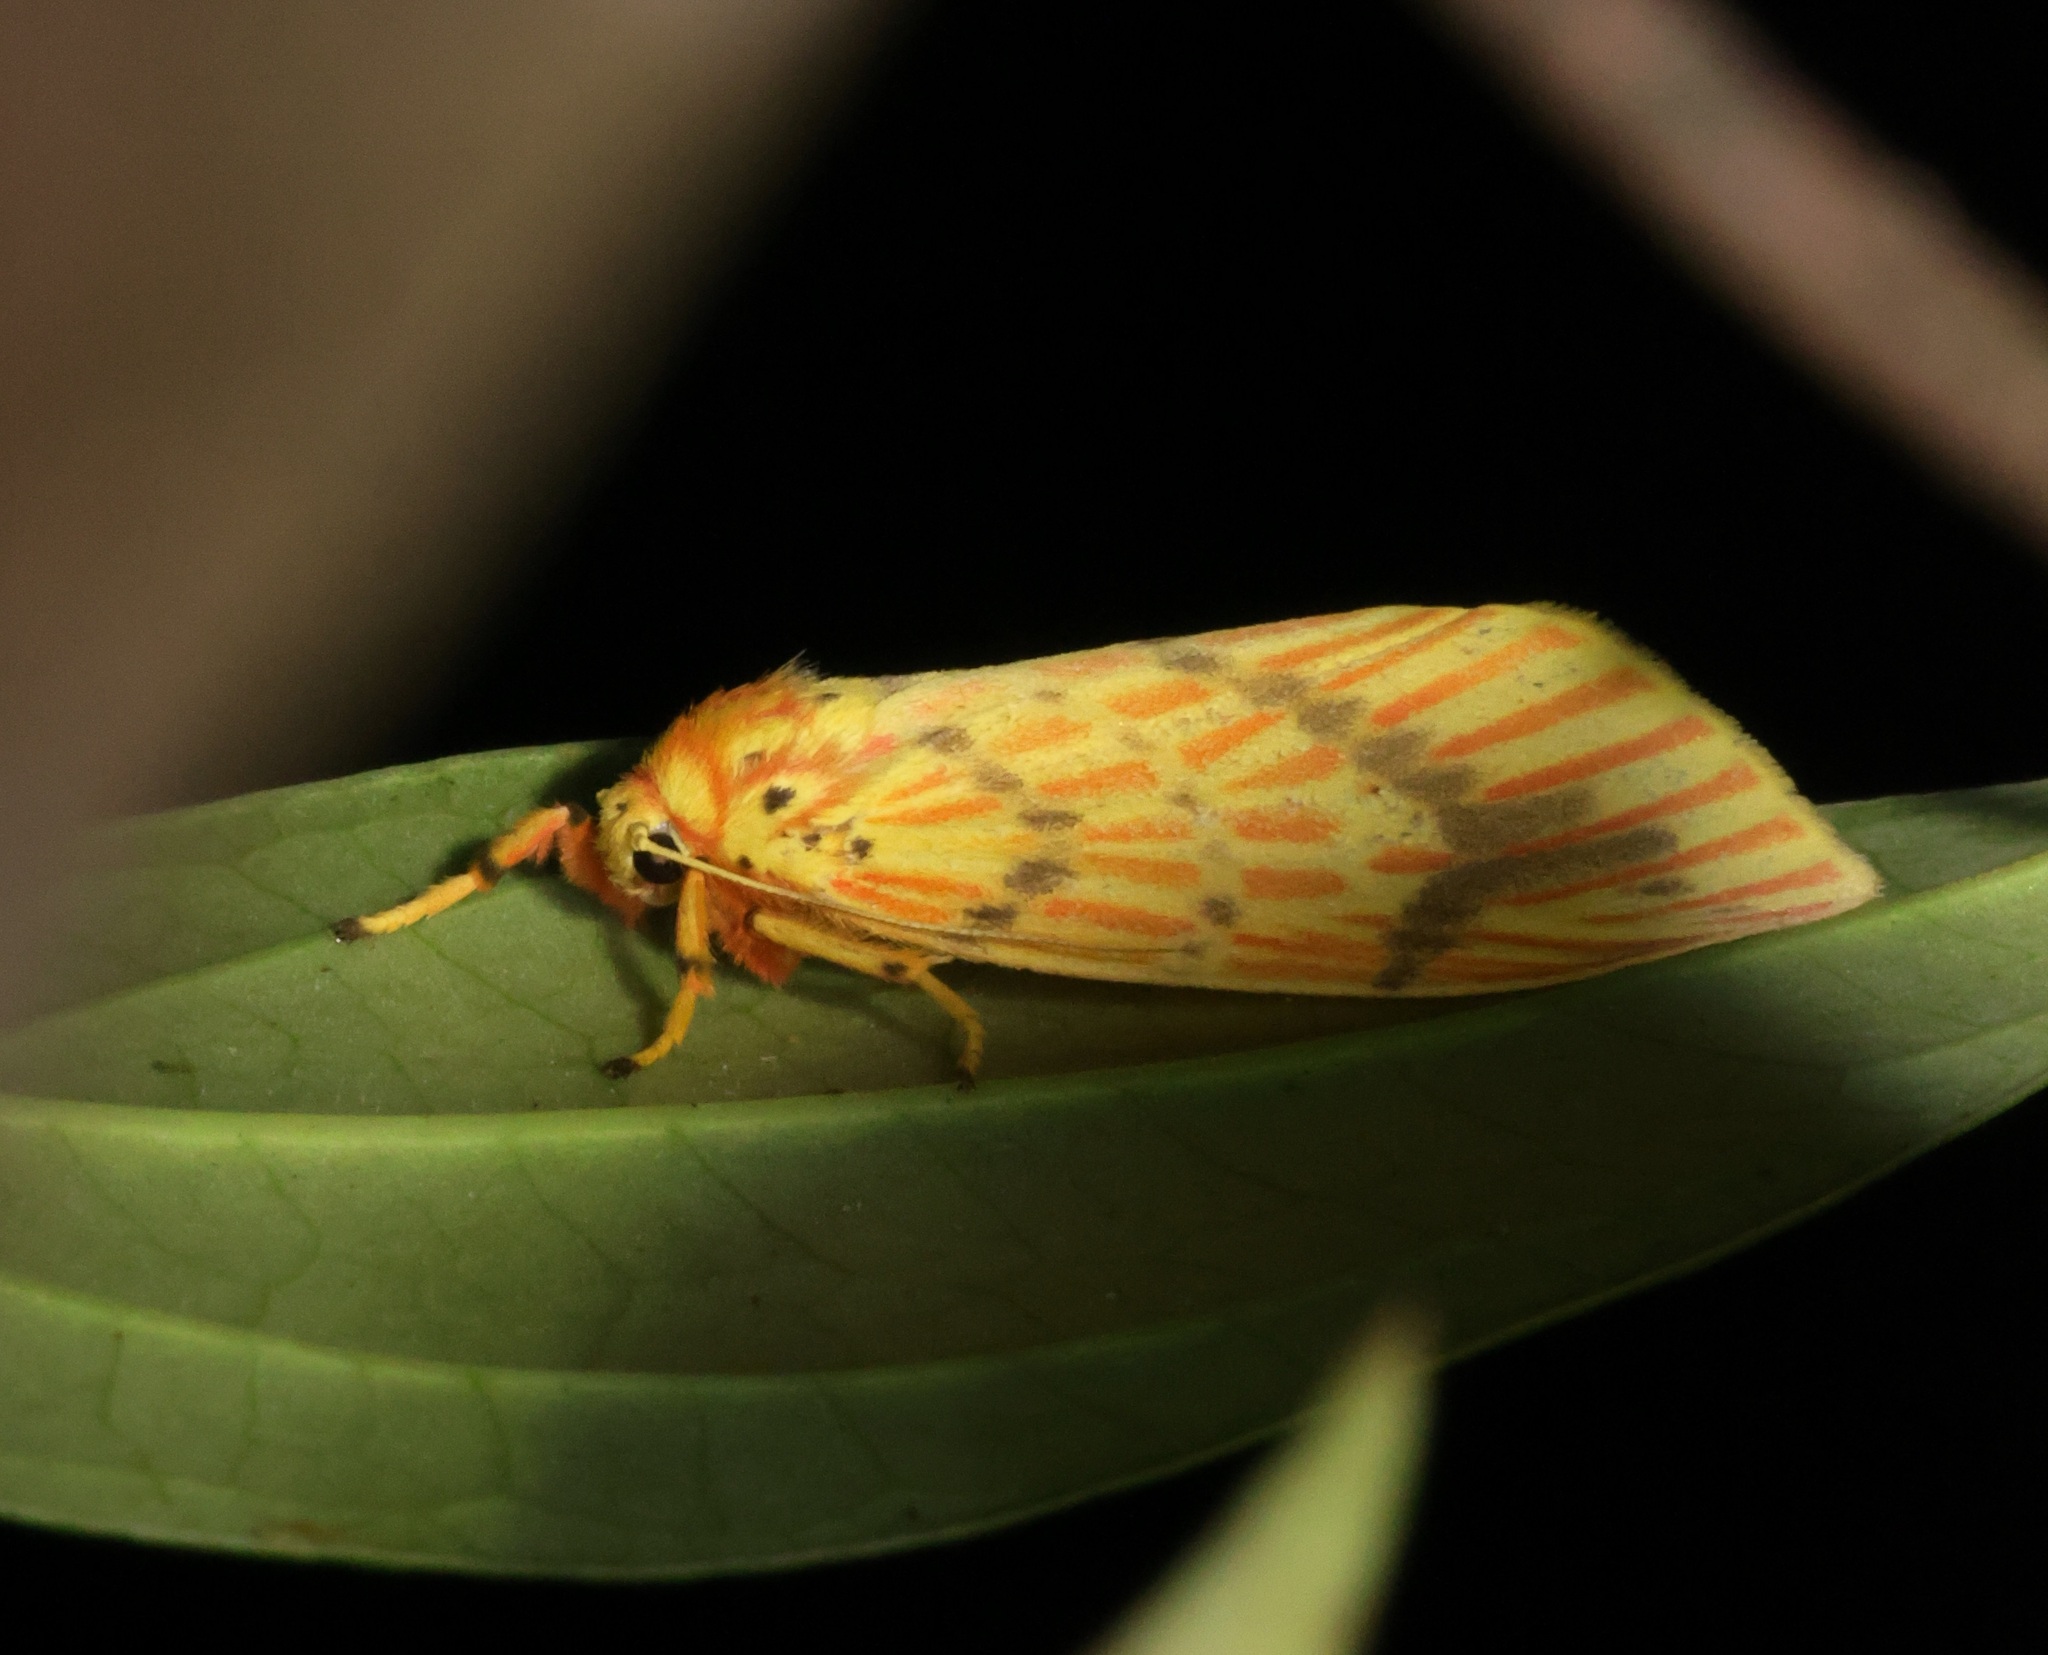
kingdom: Animalia
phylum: Arthropoda
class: Insecta
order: Lepidoptera
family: Erebidae
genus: Barsine
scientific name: Barsine striata
